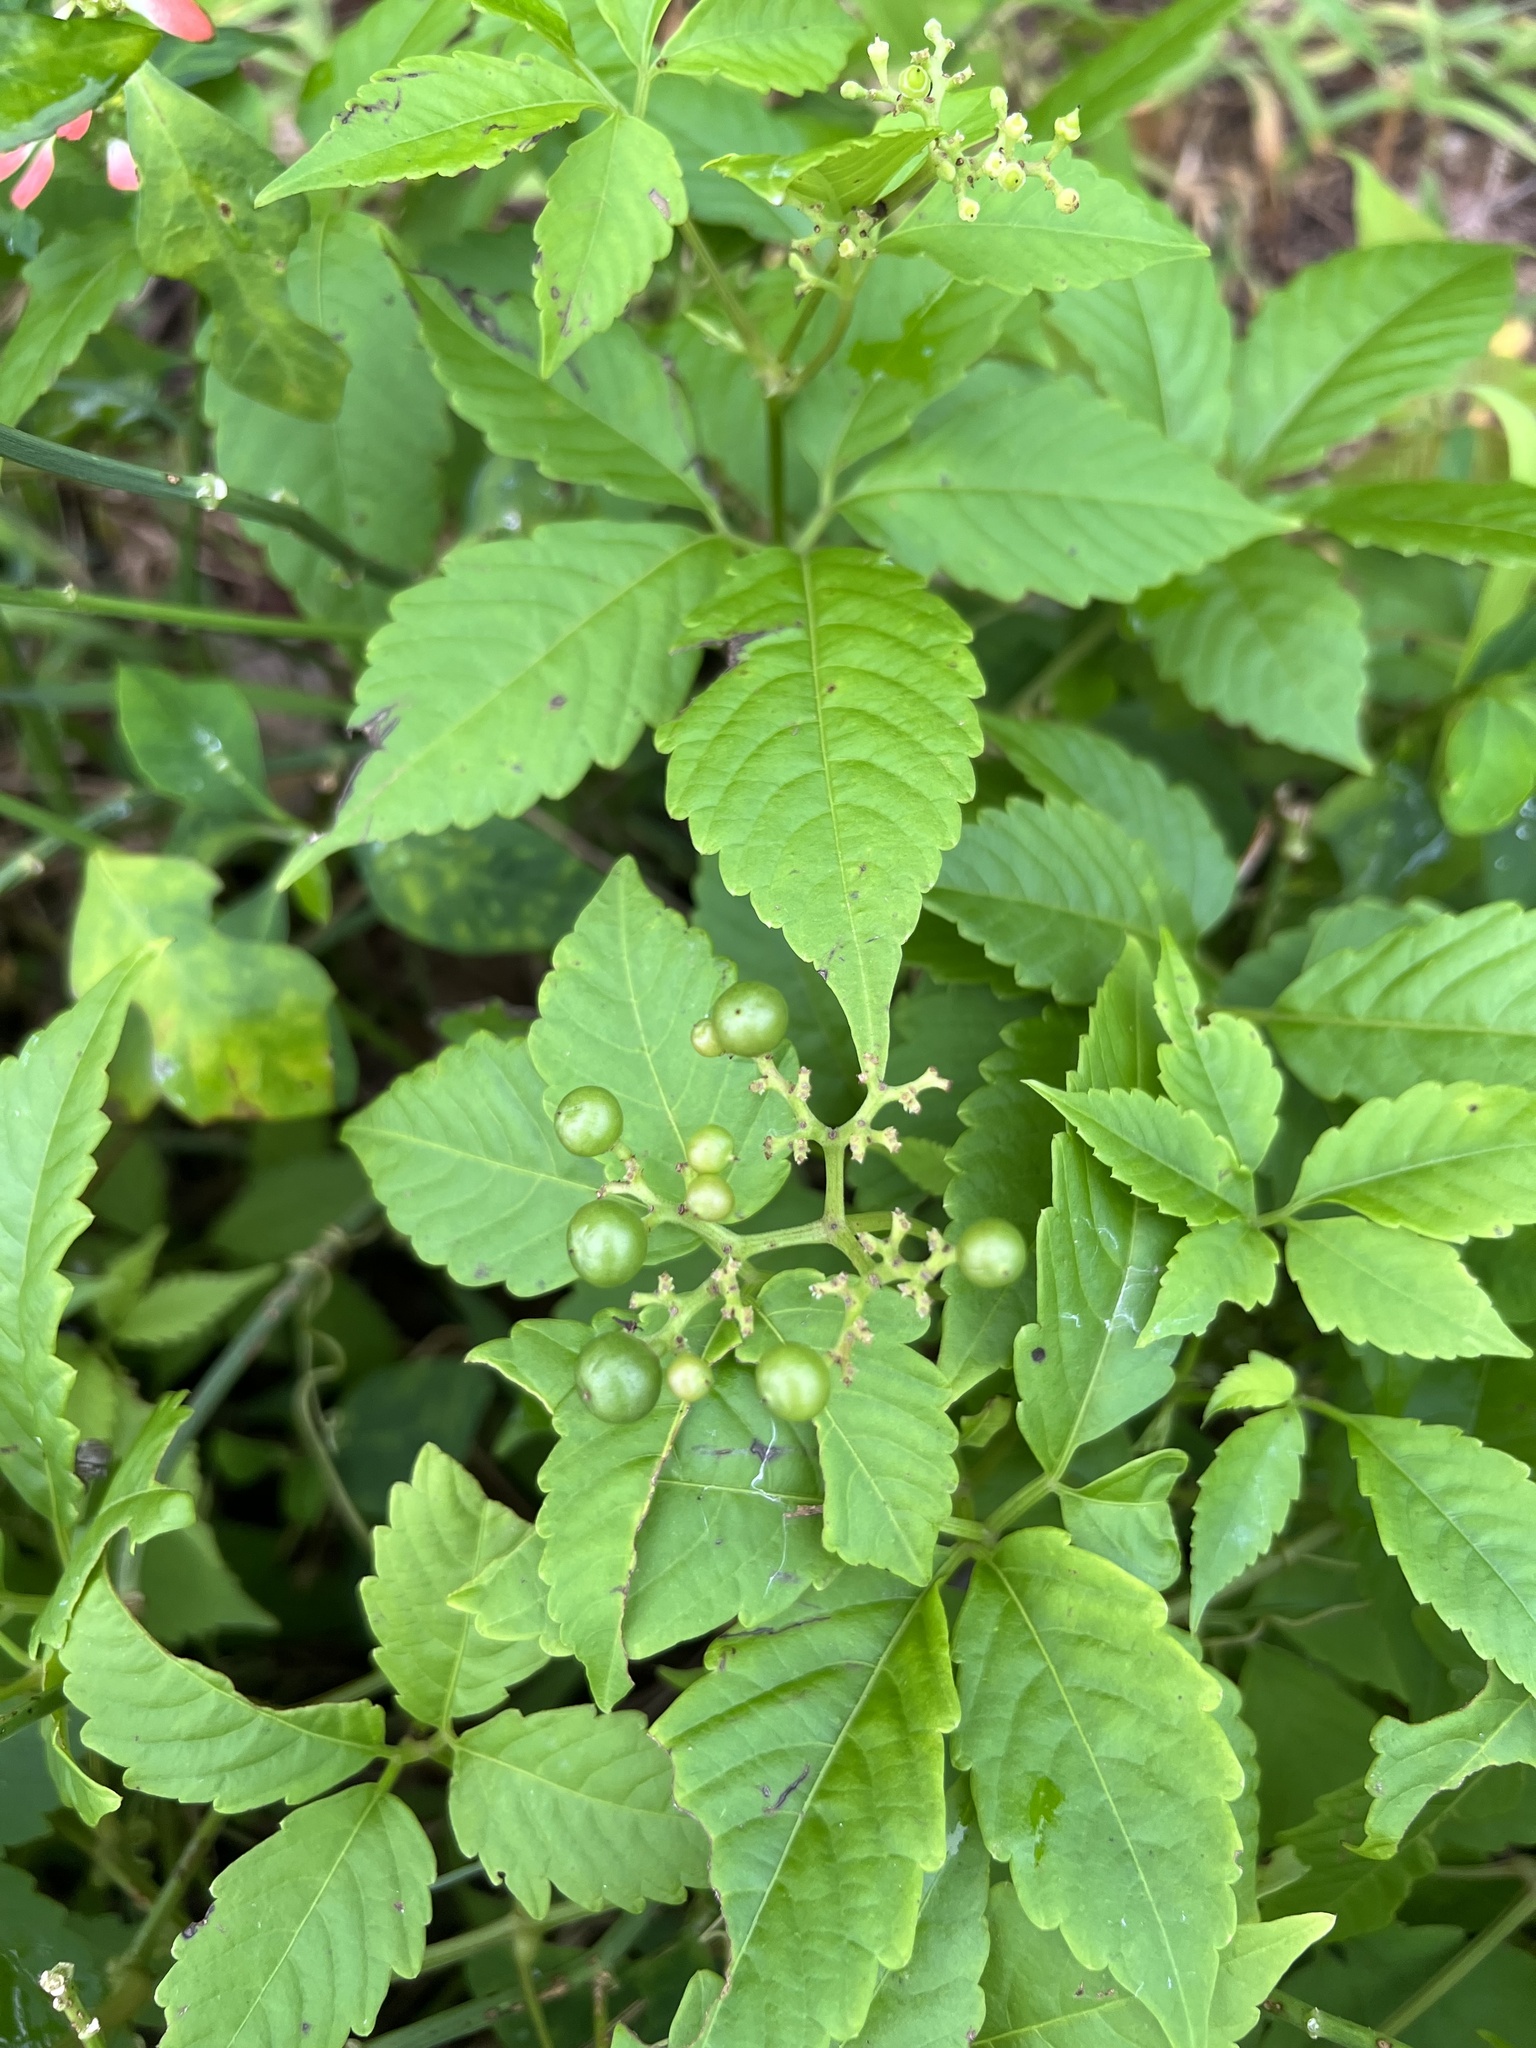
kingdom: Plantae
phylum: Tracheophyta
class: Magnoliopsida
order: Malpighiales
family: Euphorbiaceae
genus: Euphorbia
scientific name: Euphorbia heterophylla
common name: Mexican fireplant
